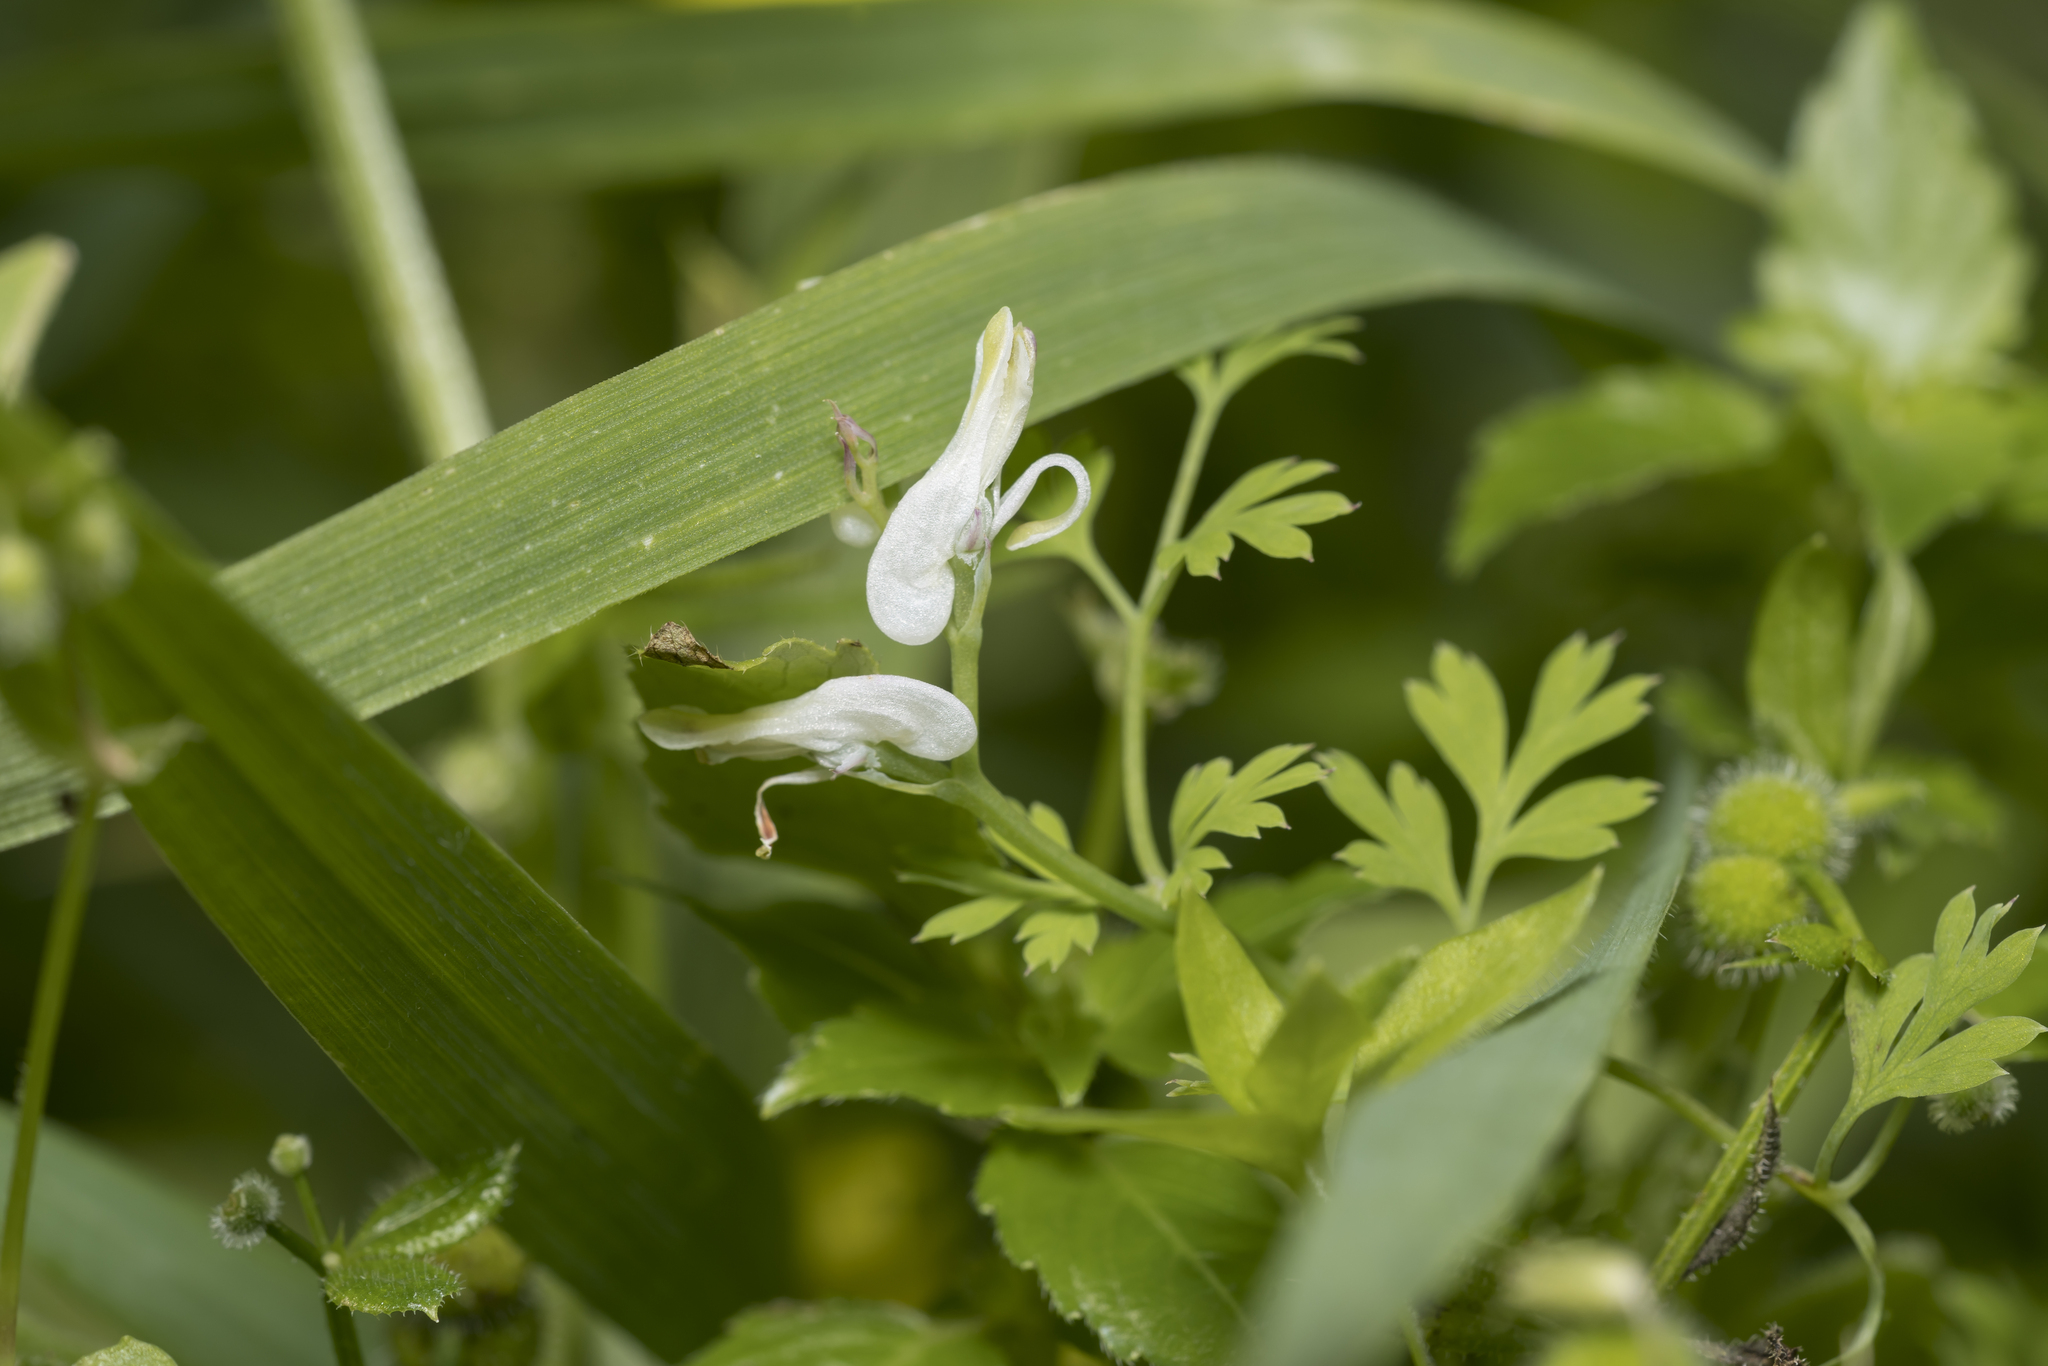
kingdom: Plantae
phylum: Tracheophyta
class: Magnoliopsida
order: Ranunculales
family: Papaveraceae
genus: Fumaria
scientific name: Fumaria macrocarpa
